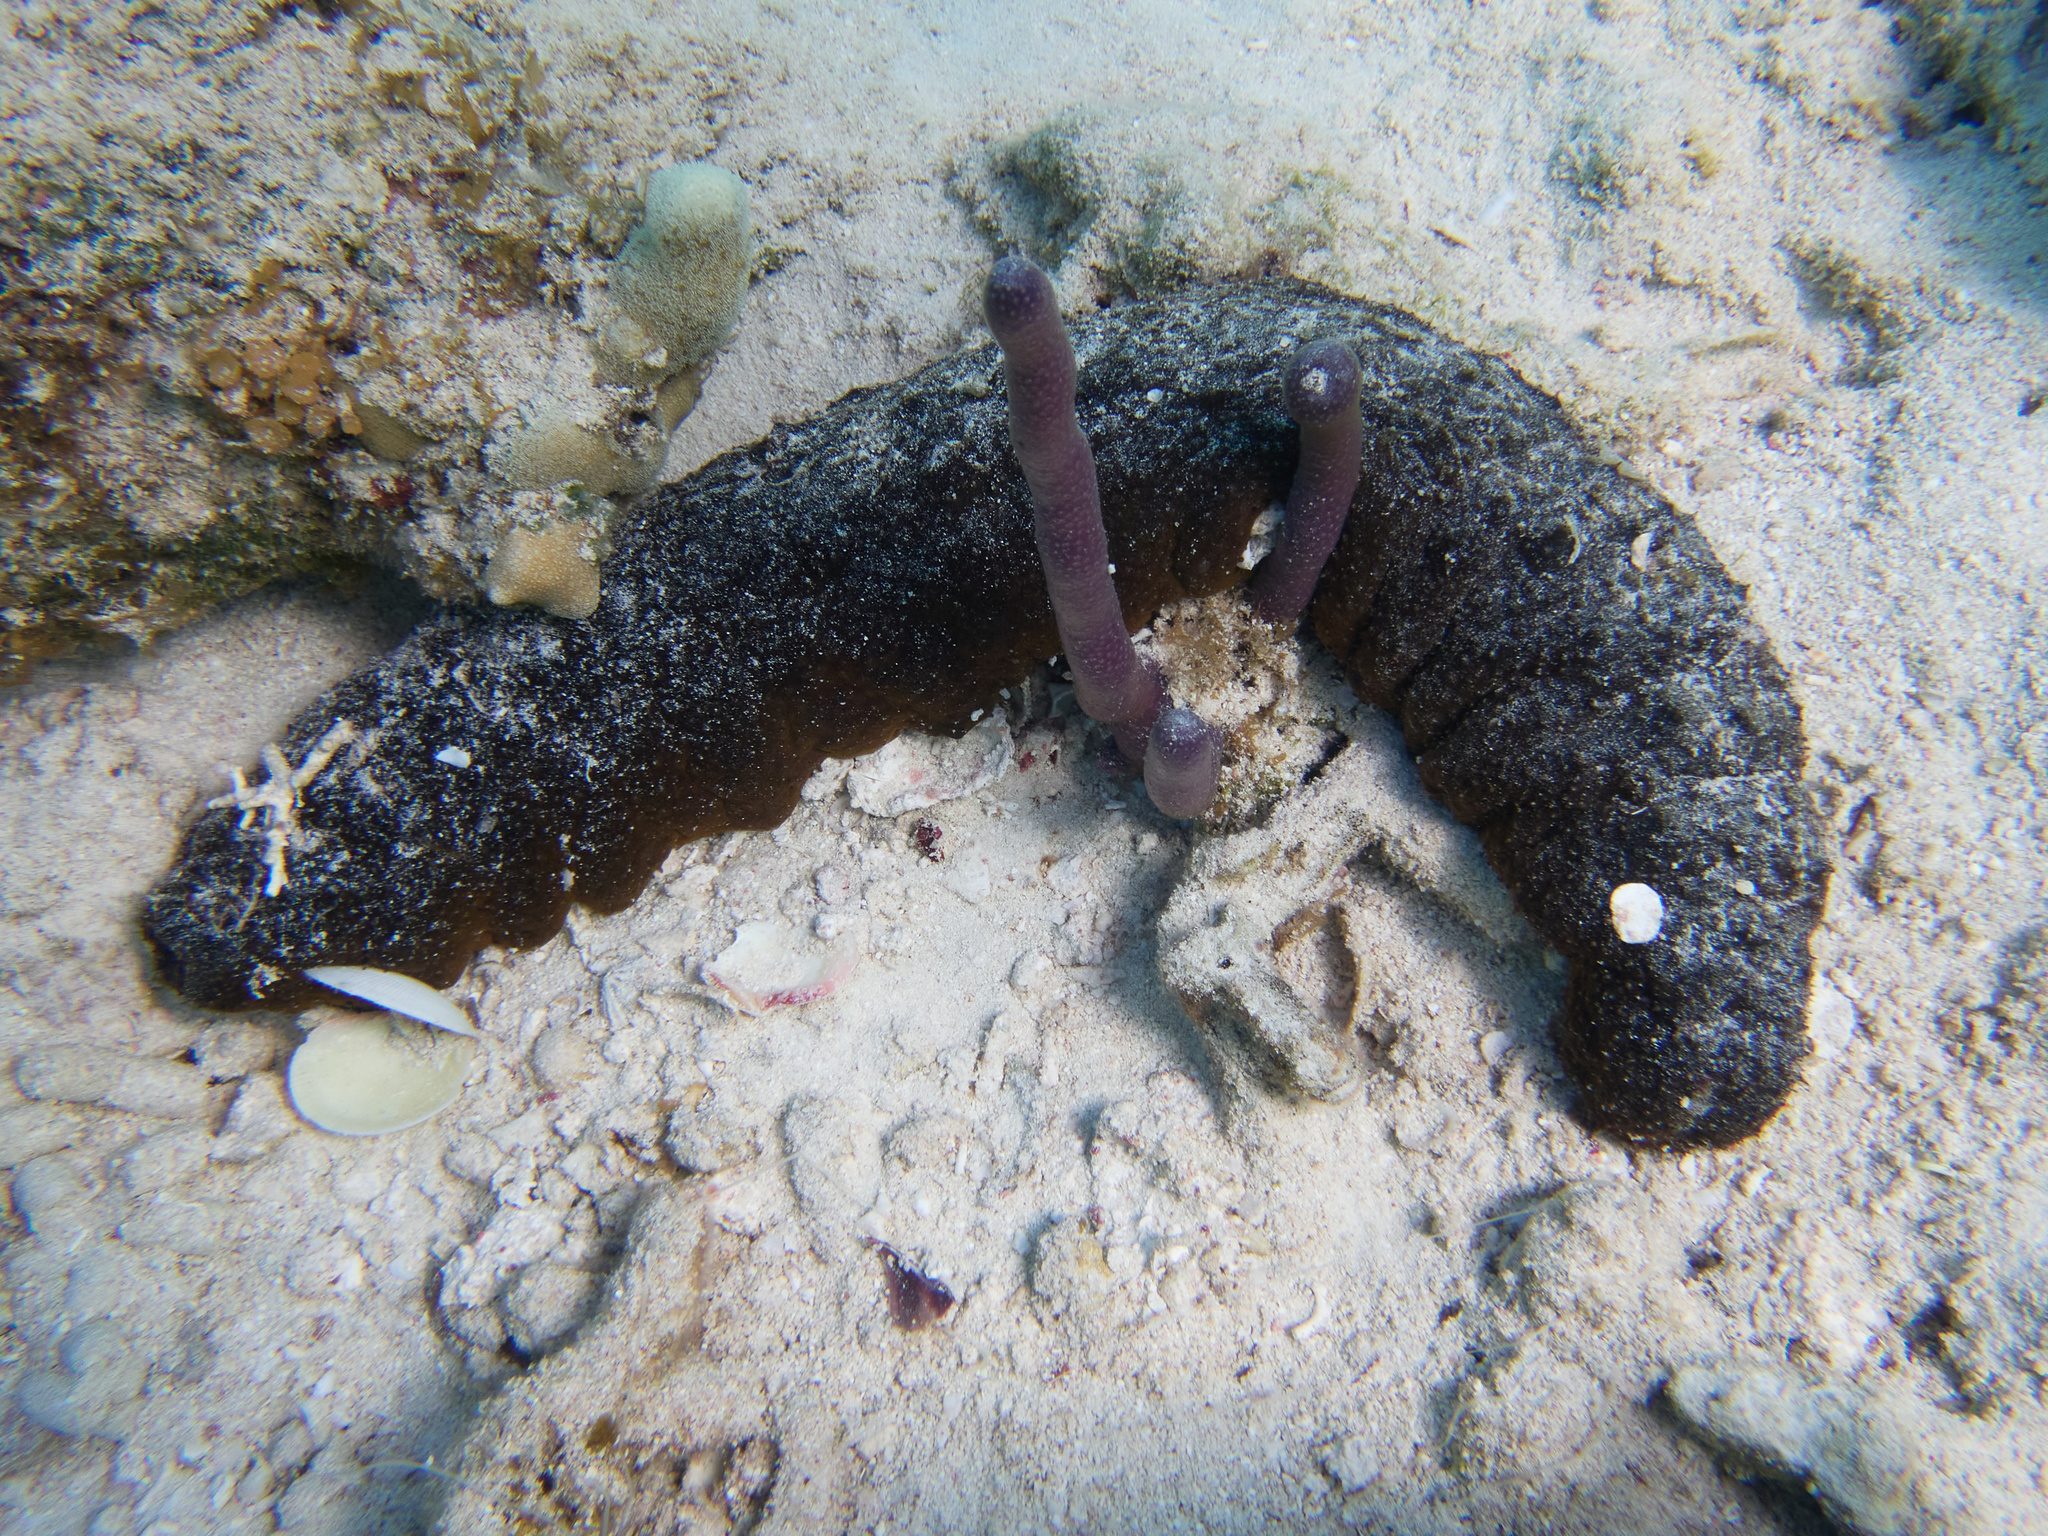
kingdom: Animalia
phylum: Echinodermata
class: Holothuroidea
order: Holothuriida
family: Holothuriidae
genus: Holothuria
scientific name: Holothuria mexicana
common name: Donkey dung sea cucumber
